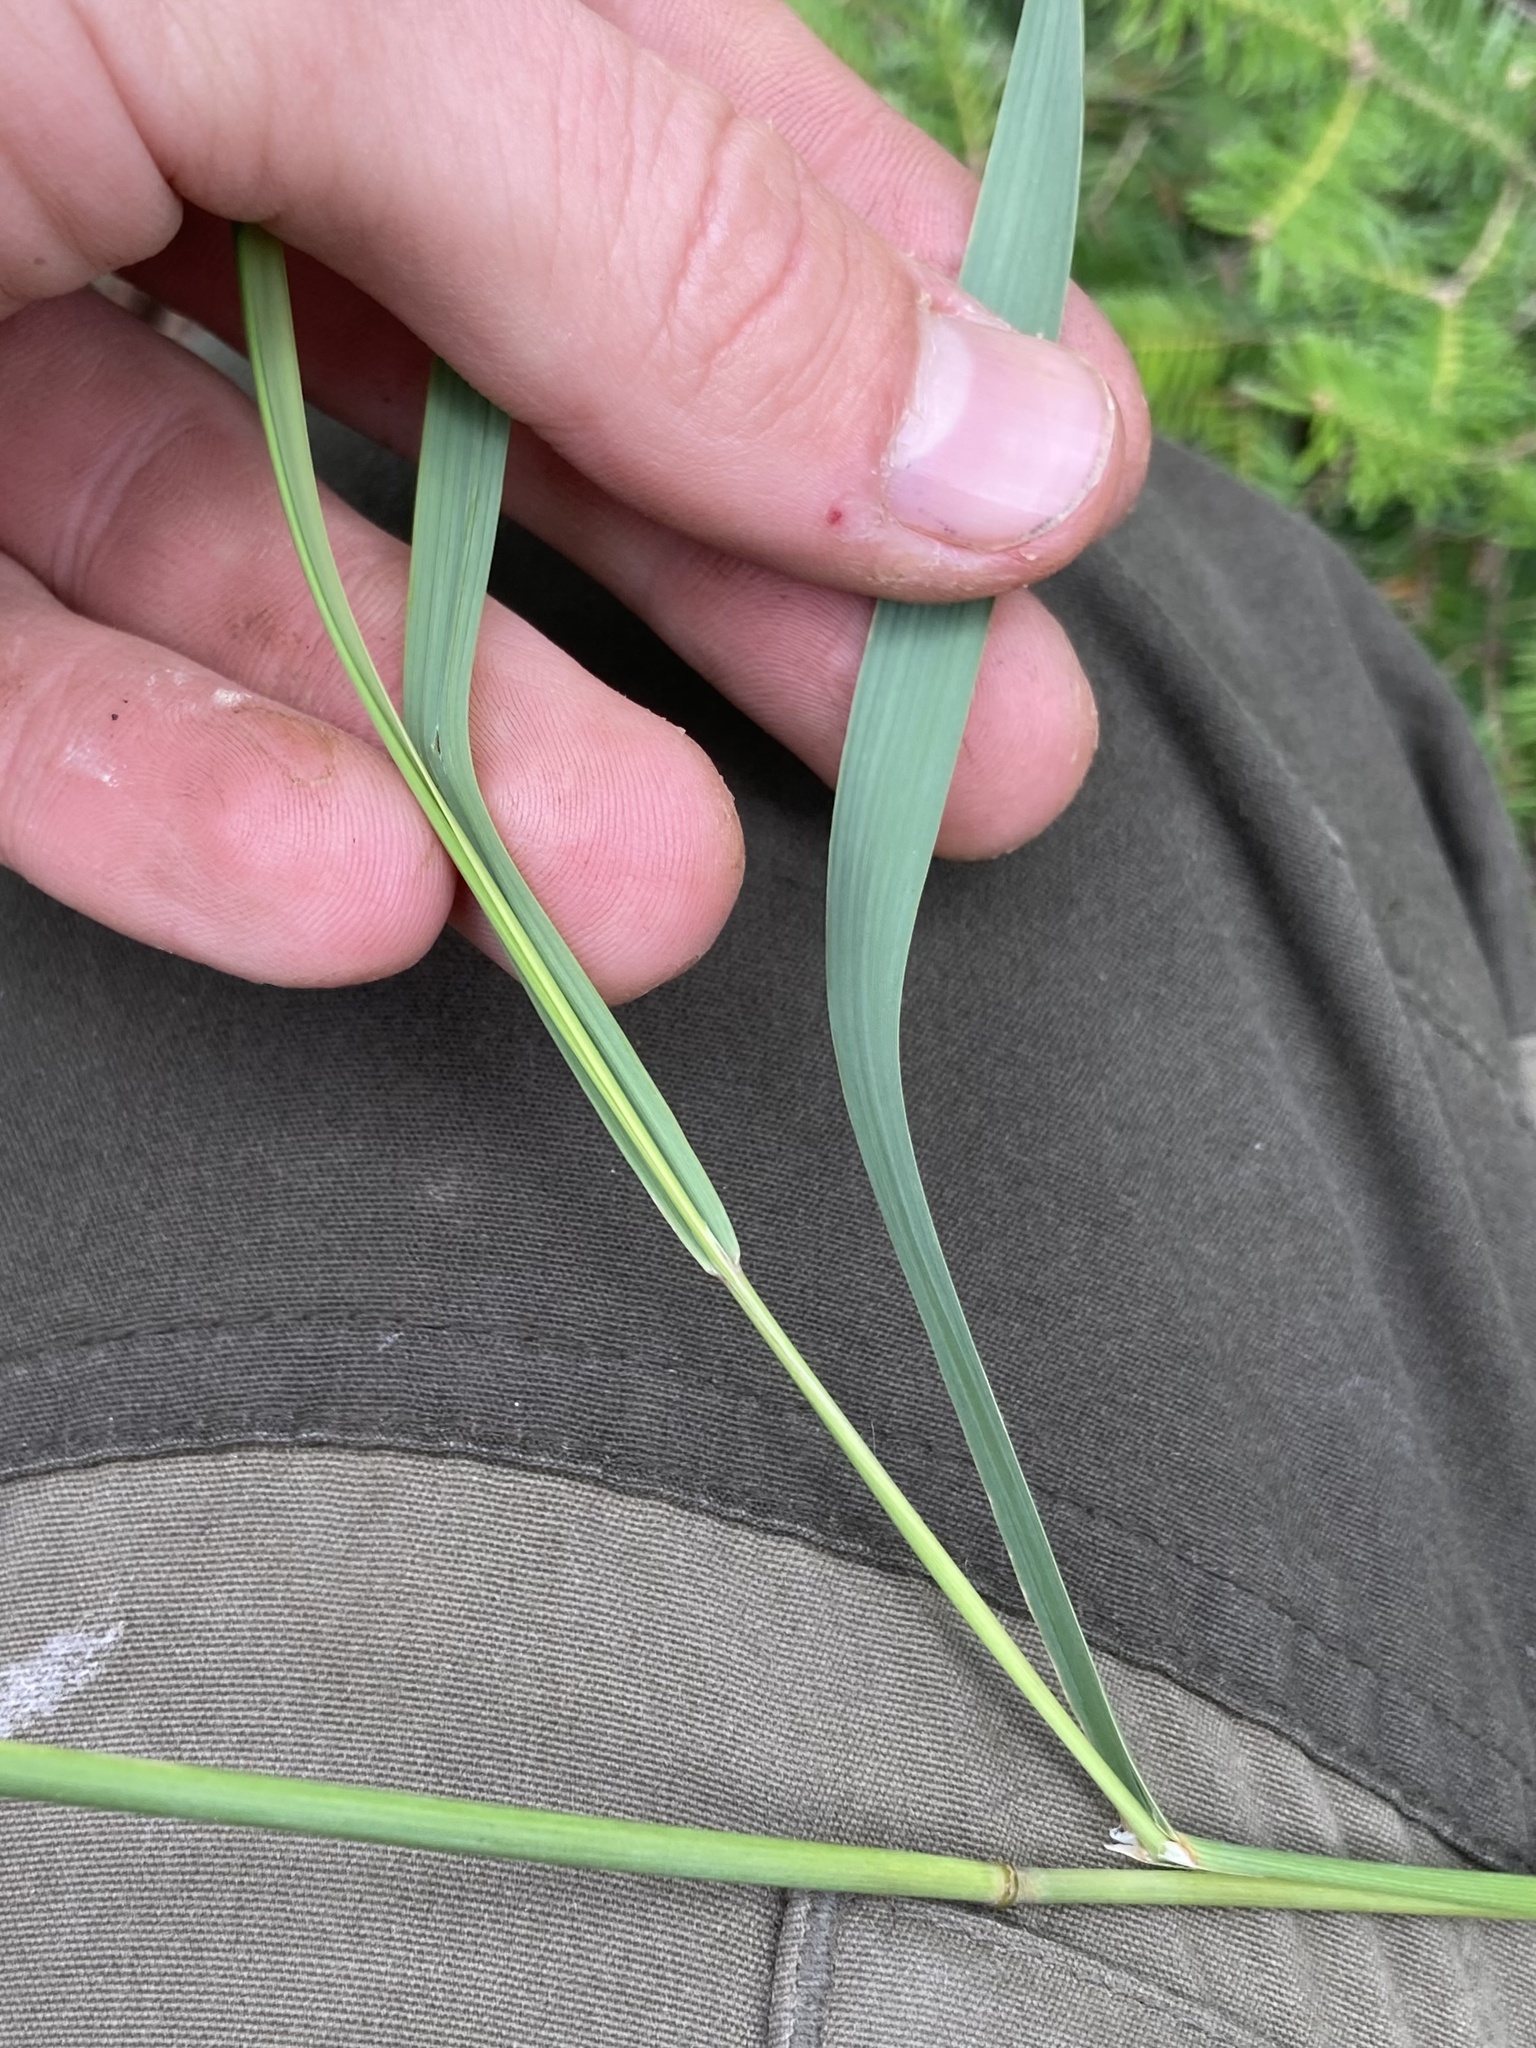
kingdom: Plantae
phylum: Tracheophyta
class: Liliopsida
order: Poales
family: Poaceae
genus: Calamagrostis
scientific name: Calamagrostis canadensis
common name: Canada bluejoint
